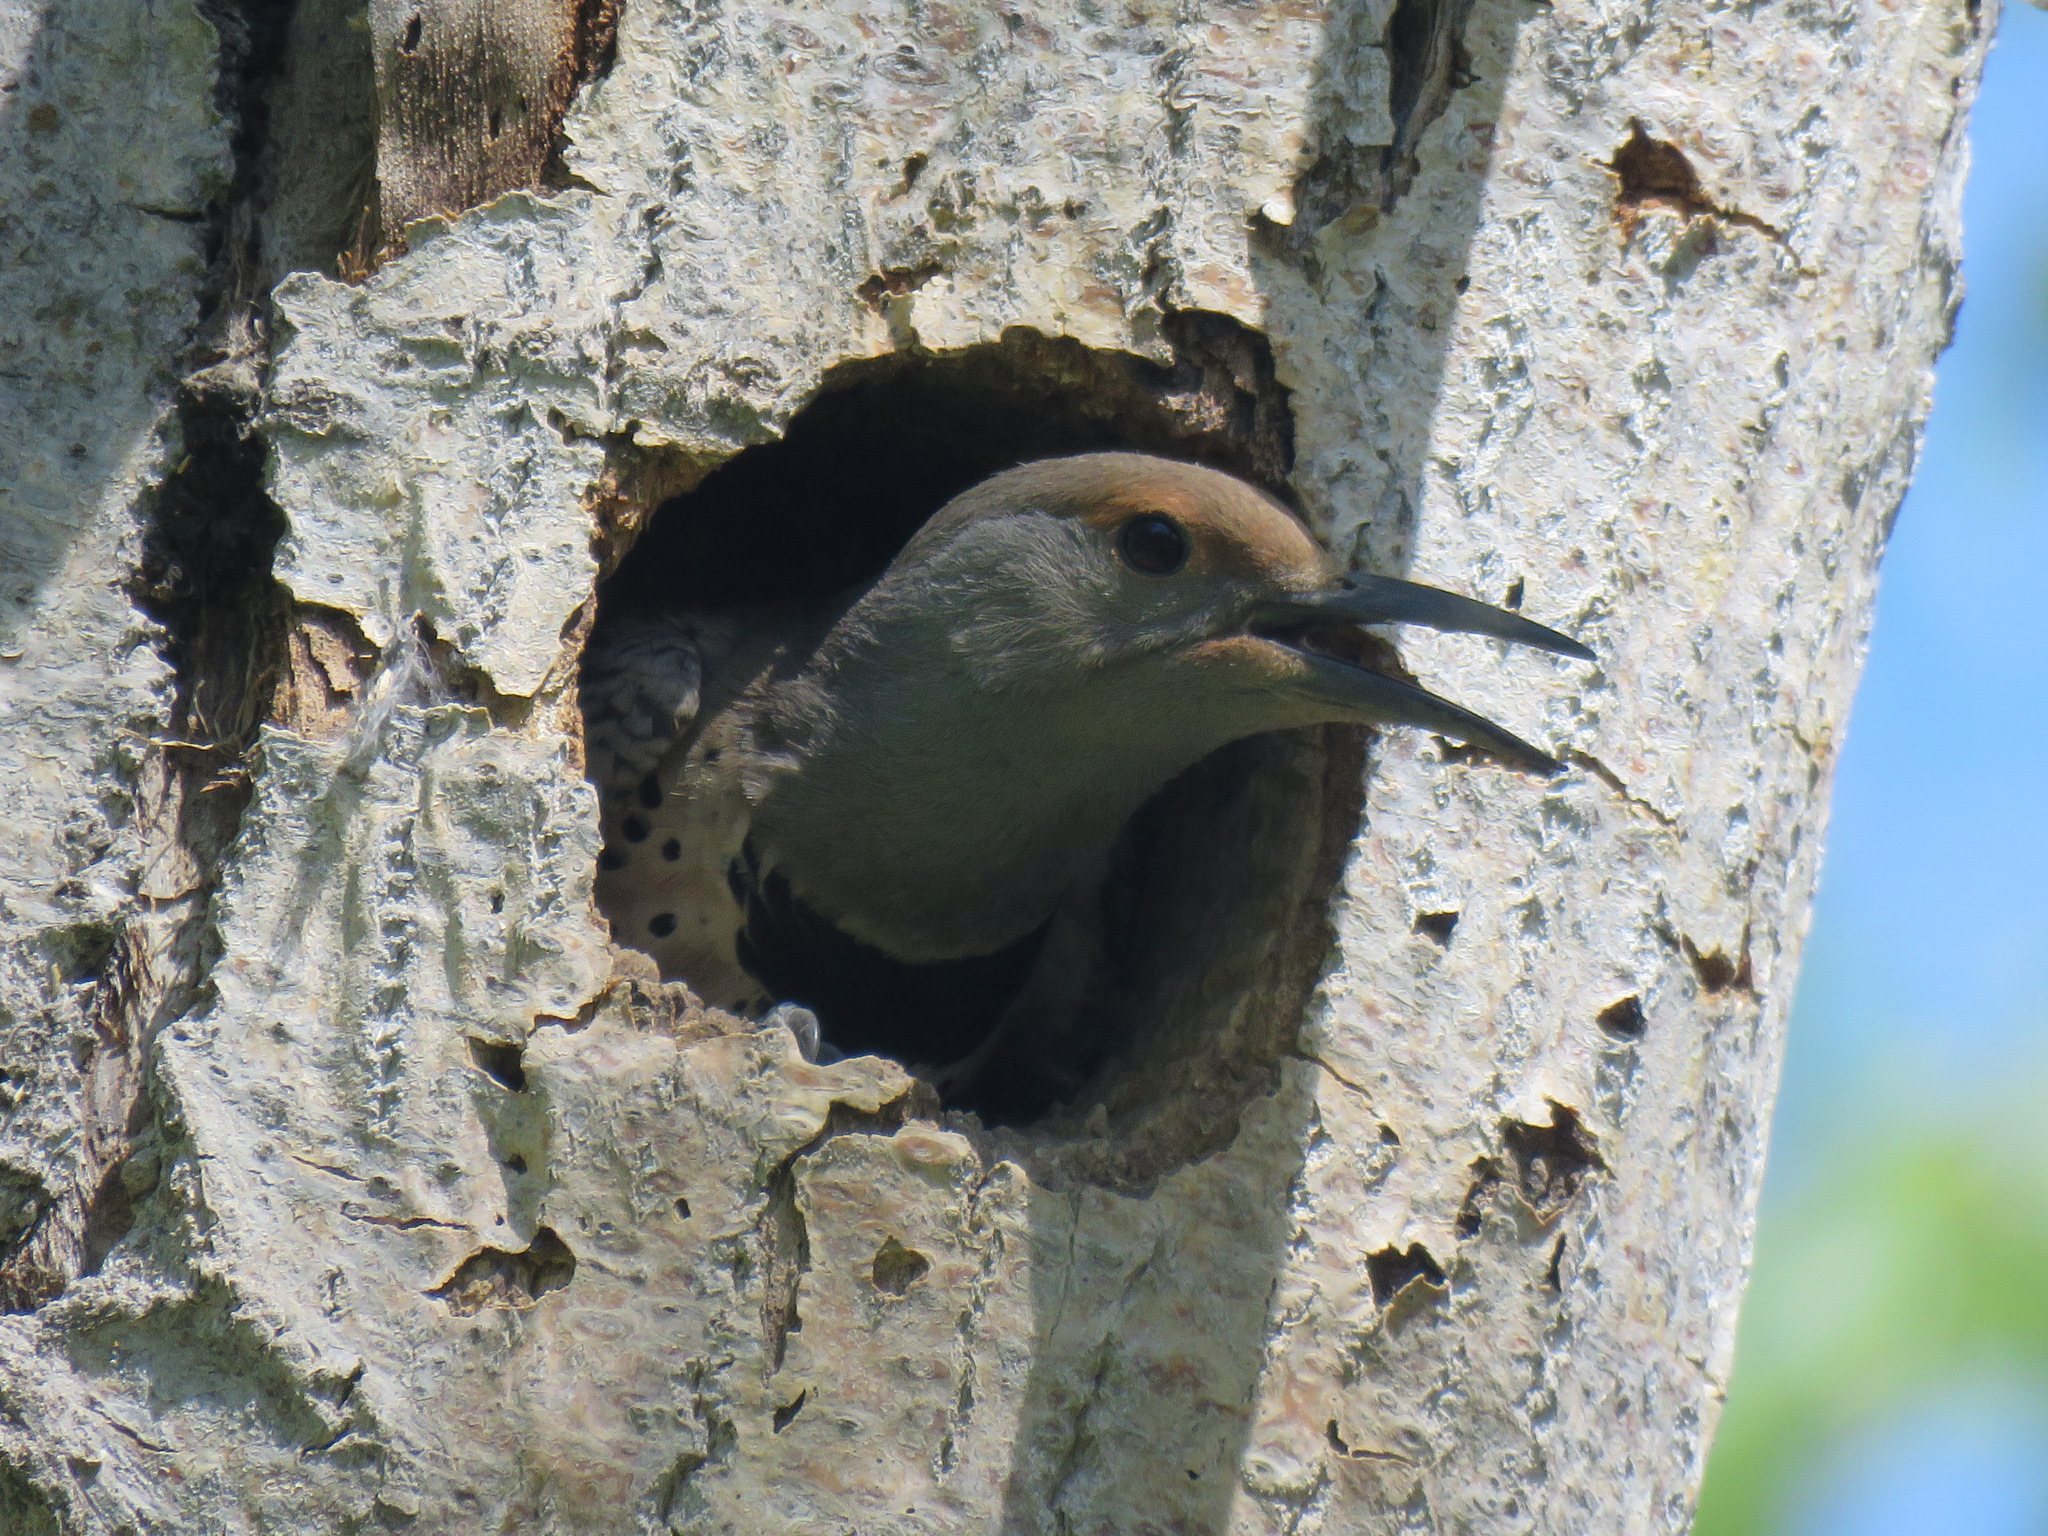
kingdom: Animalia
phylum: Chordata
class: Aves
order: Piciformes
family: Picidae
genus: Colaptes
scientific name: Colaptes auratus
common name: Northern flicker
